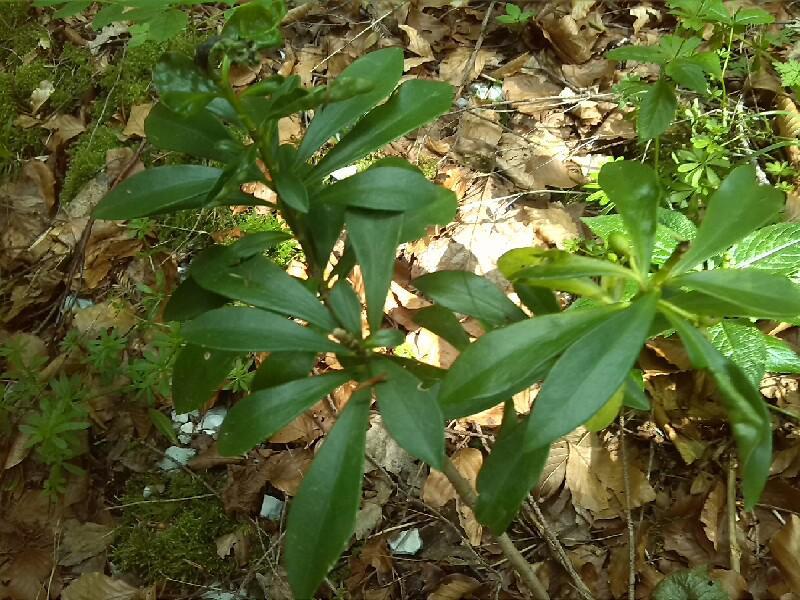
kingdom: Plantae
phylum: Tracheophyta
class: Magnoliopsida
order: Malvales
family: Thymelaeaceae
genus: Daphne
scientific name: Daphne laureola
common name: Spurge-laurel
